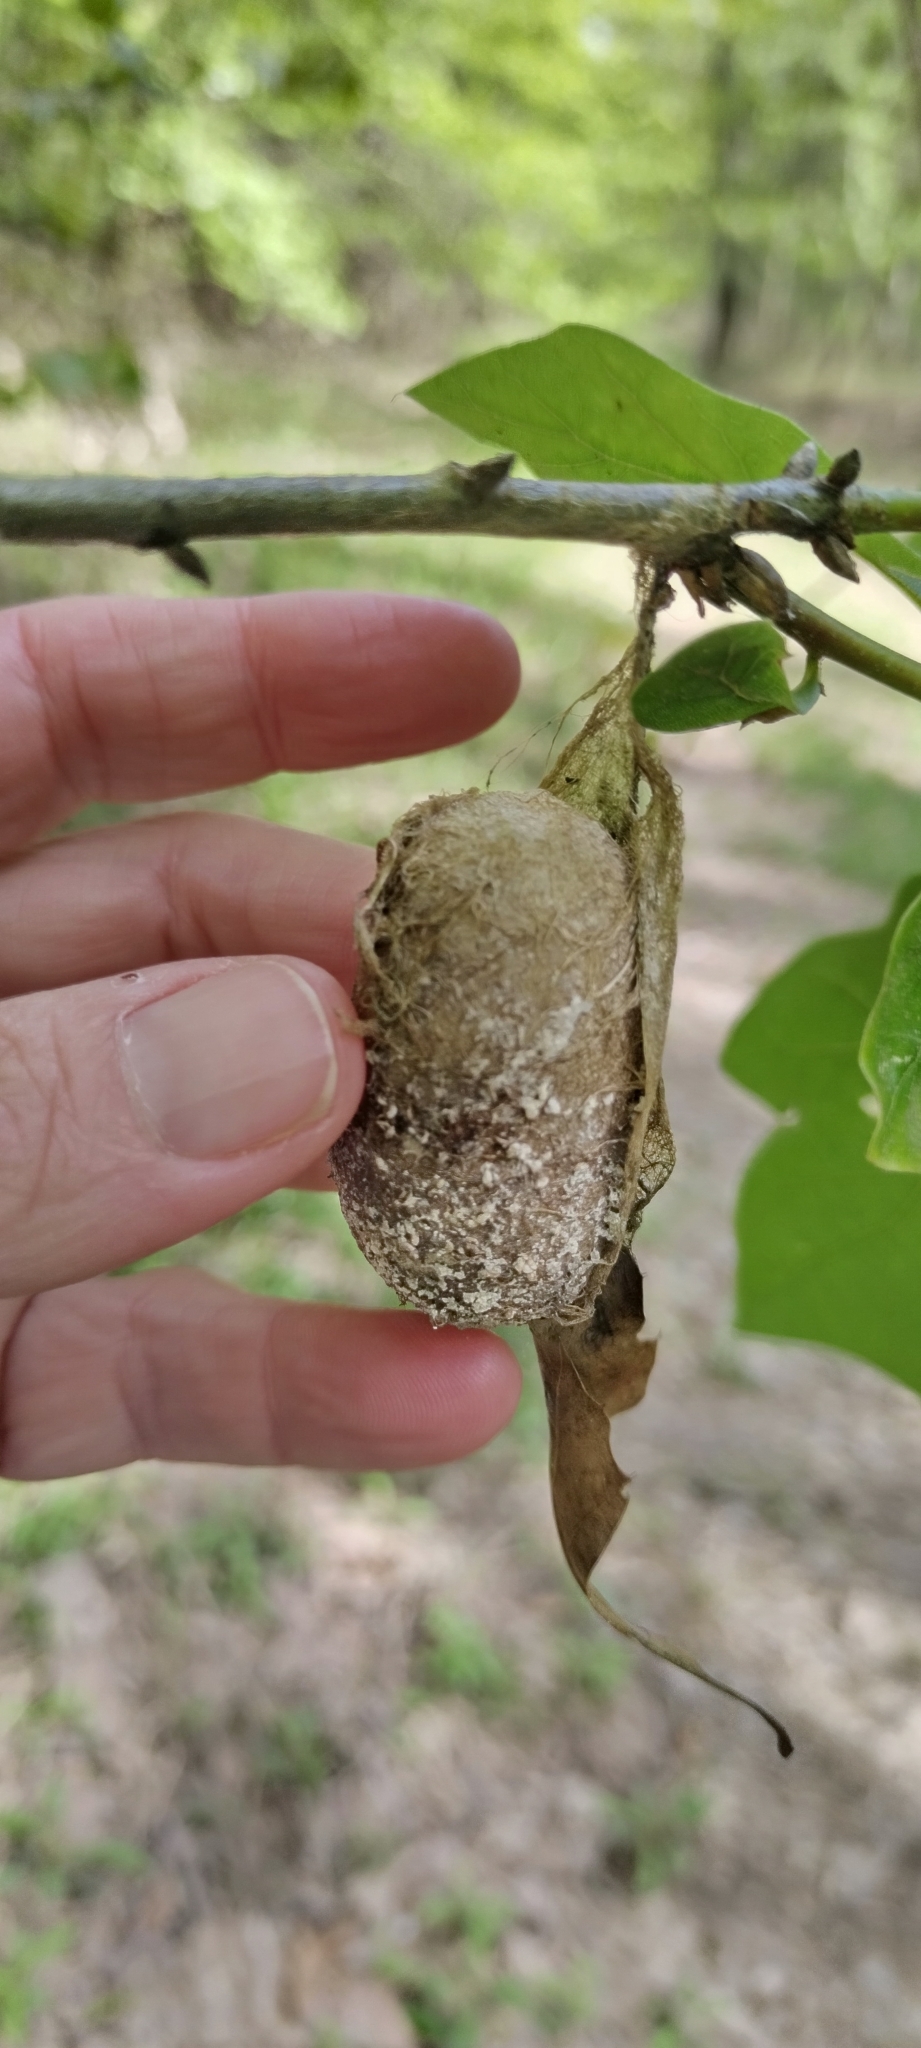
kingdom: Animalia
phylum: Arthropoda
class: Insecta
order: Lepidoptera
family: Saturniidae
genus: Antheraea
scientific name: Antheraea polyphemus
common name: Polyphemus moth
